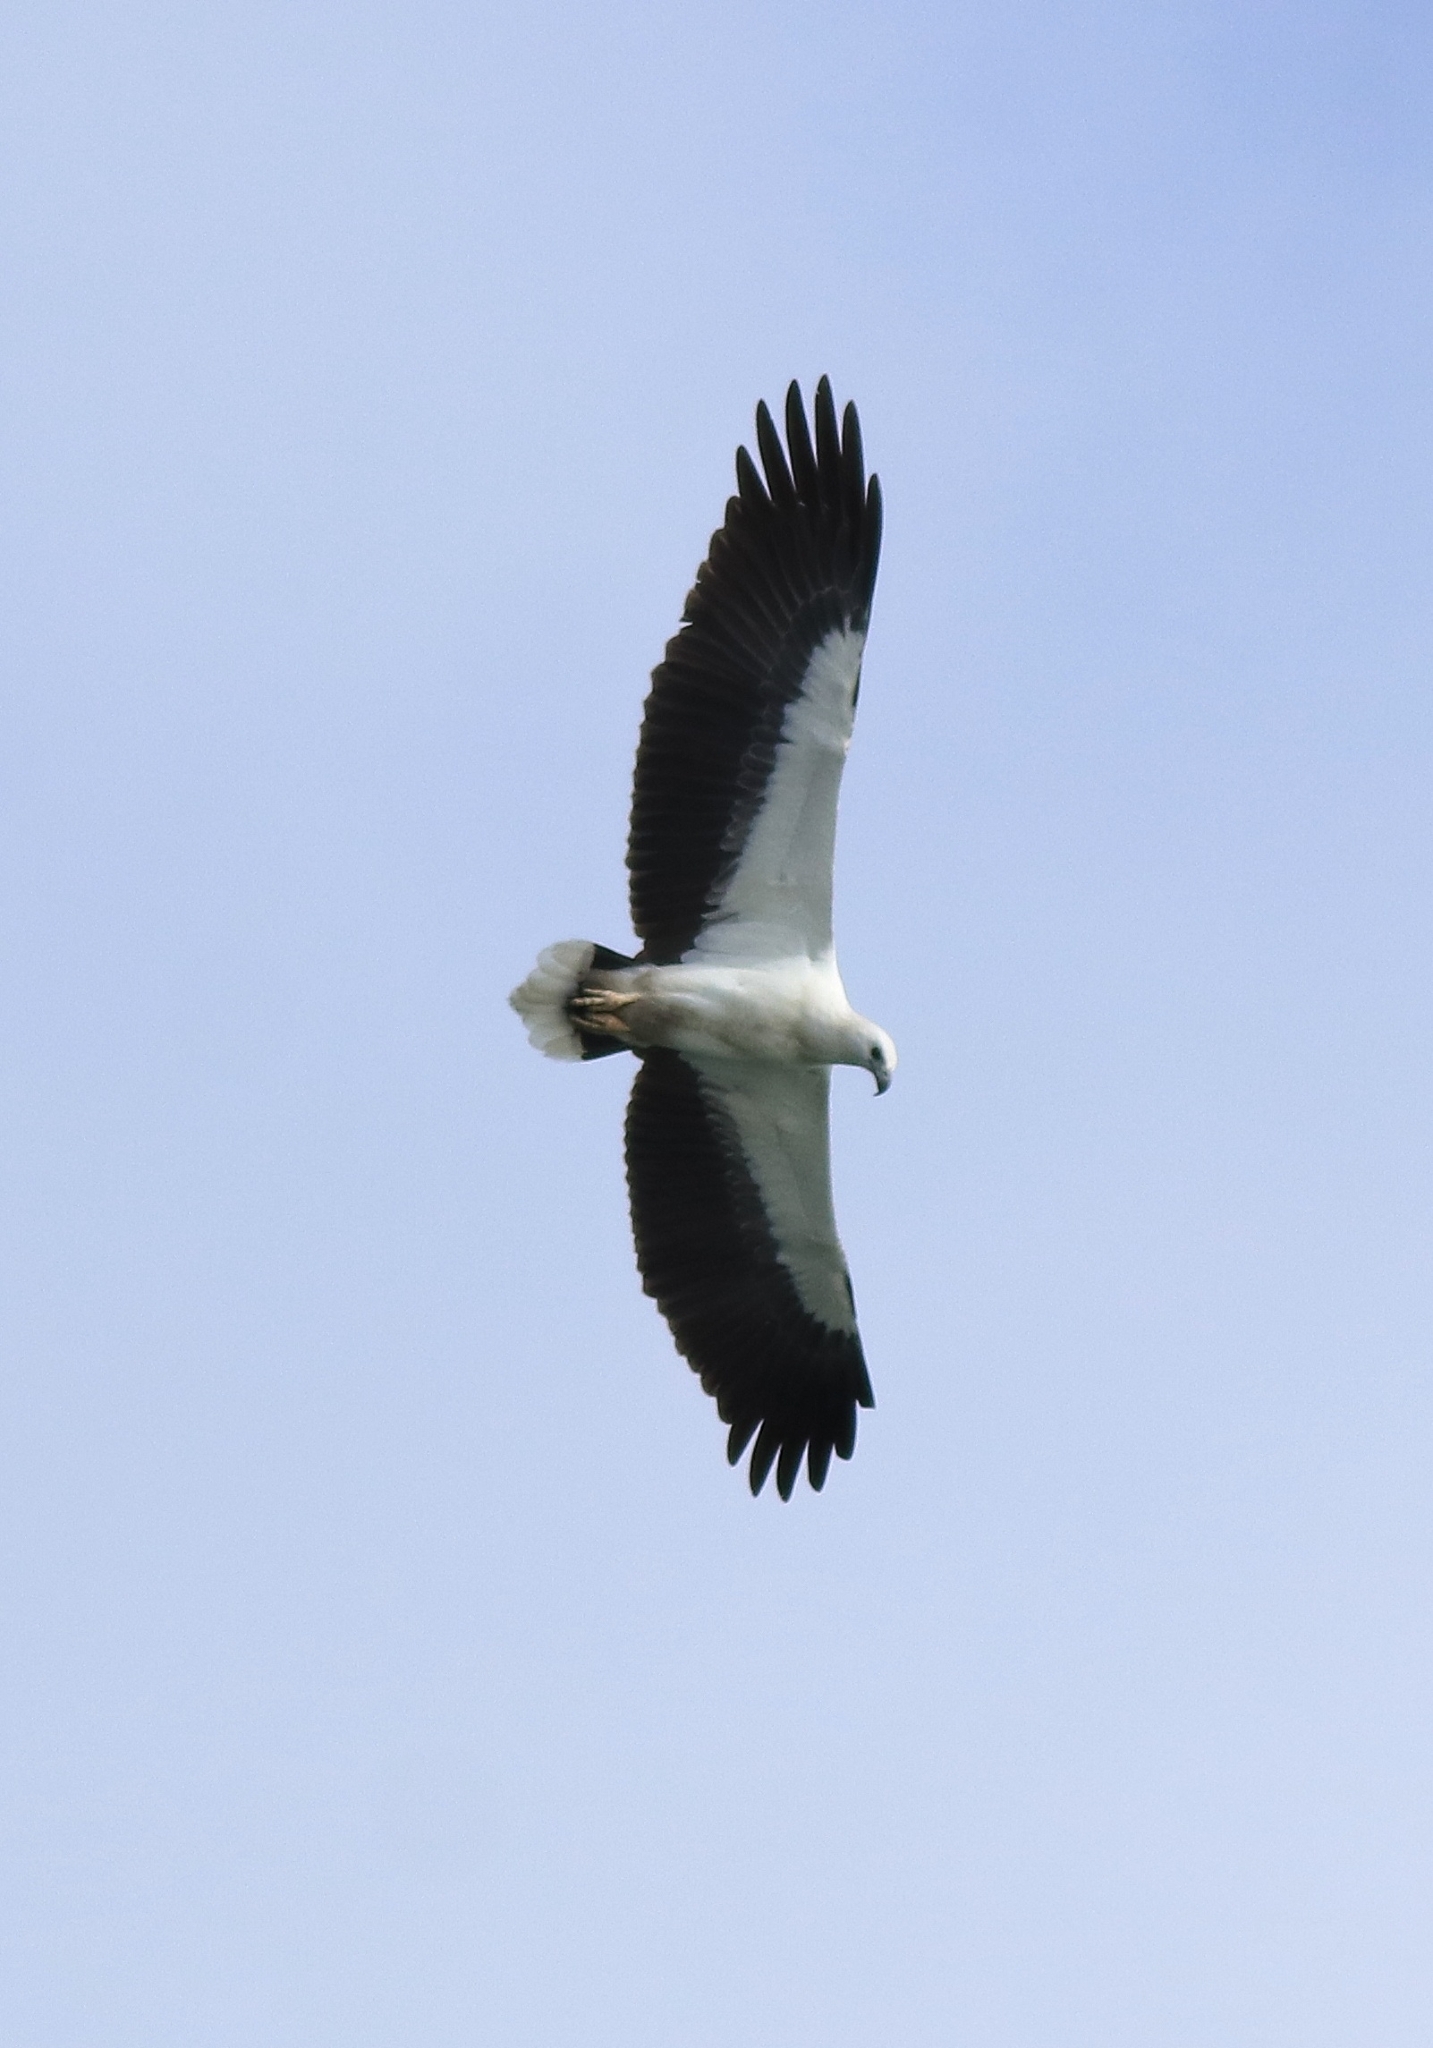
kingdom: Animalia
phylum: Chordata
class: Aves
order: Accipitriformes
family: Accipitridae
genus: Haliaeetus
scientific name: Haliaeetus leucogaster
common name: White-bellied sea eagle
